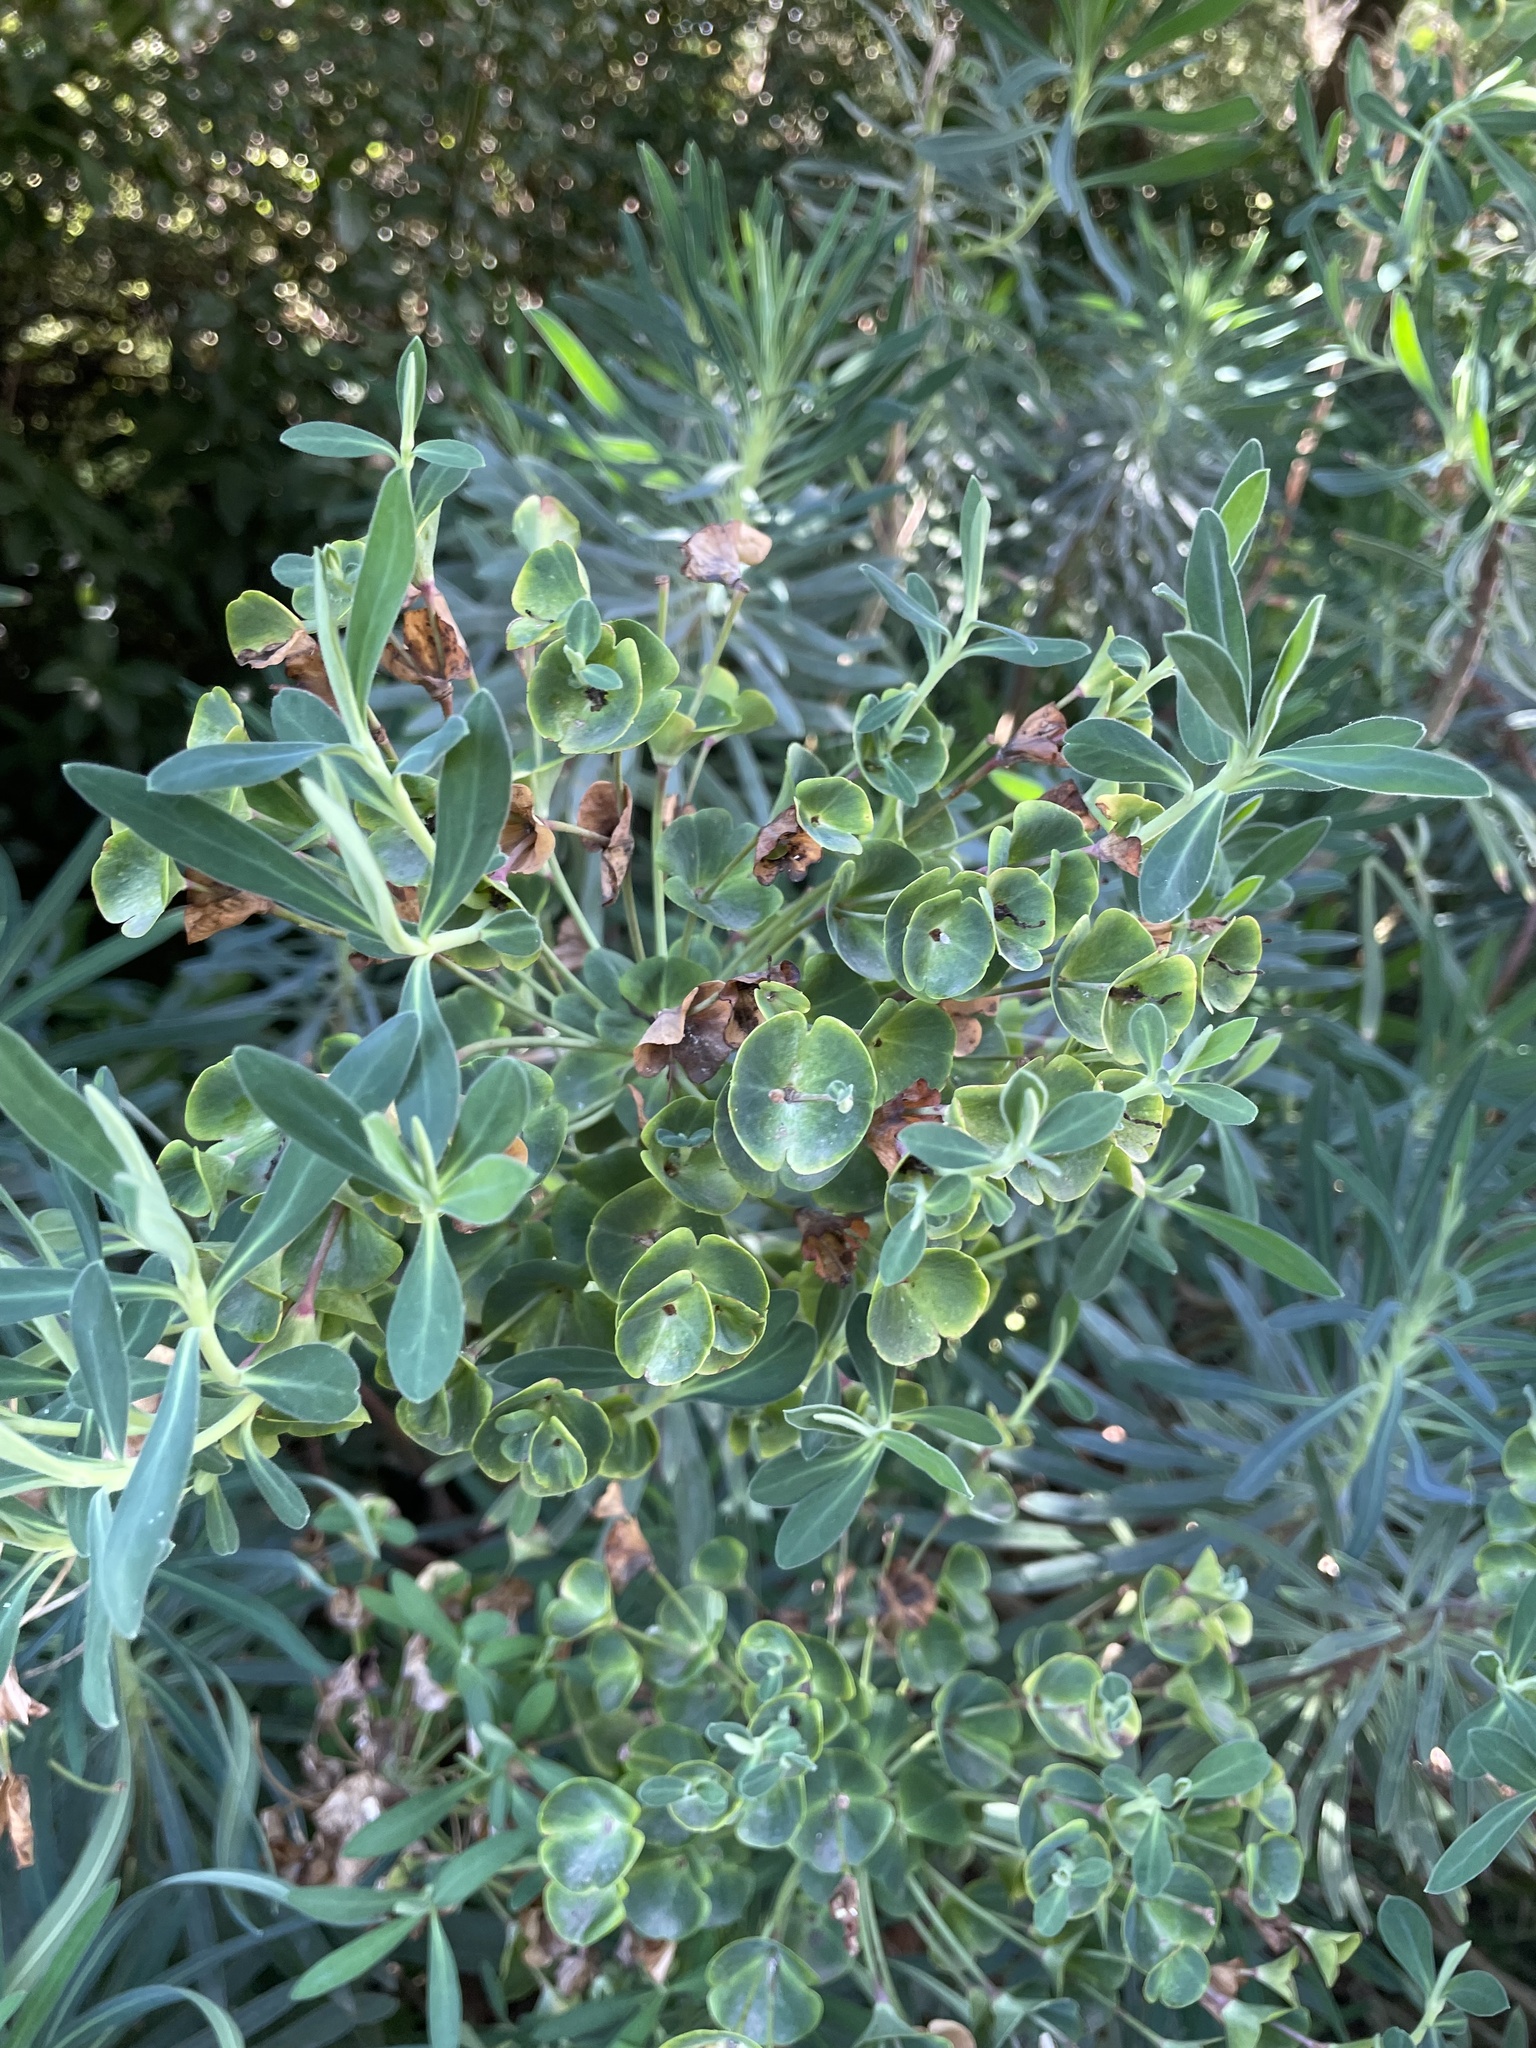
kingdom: Plantae
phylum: Tracheophyta
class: Magnoliopsida
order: Malpighiales
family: Euphorbiaceae
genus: Euphorbia
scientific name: Euphorbia characias
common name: Mediterranean spurge
